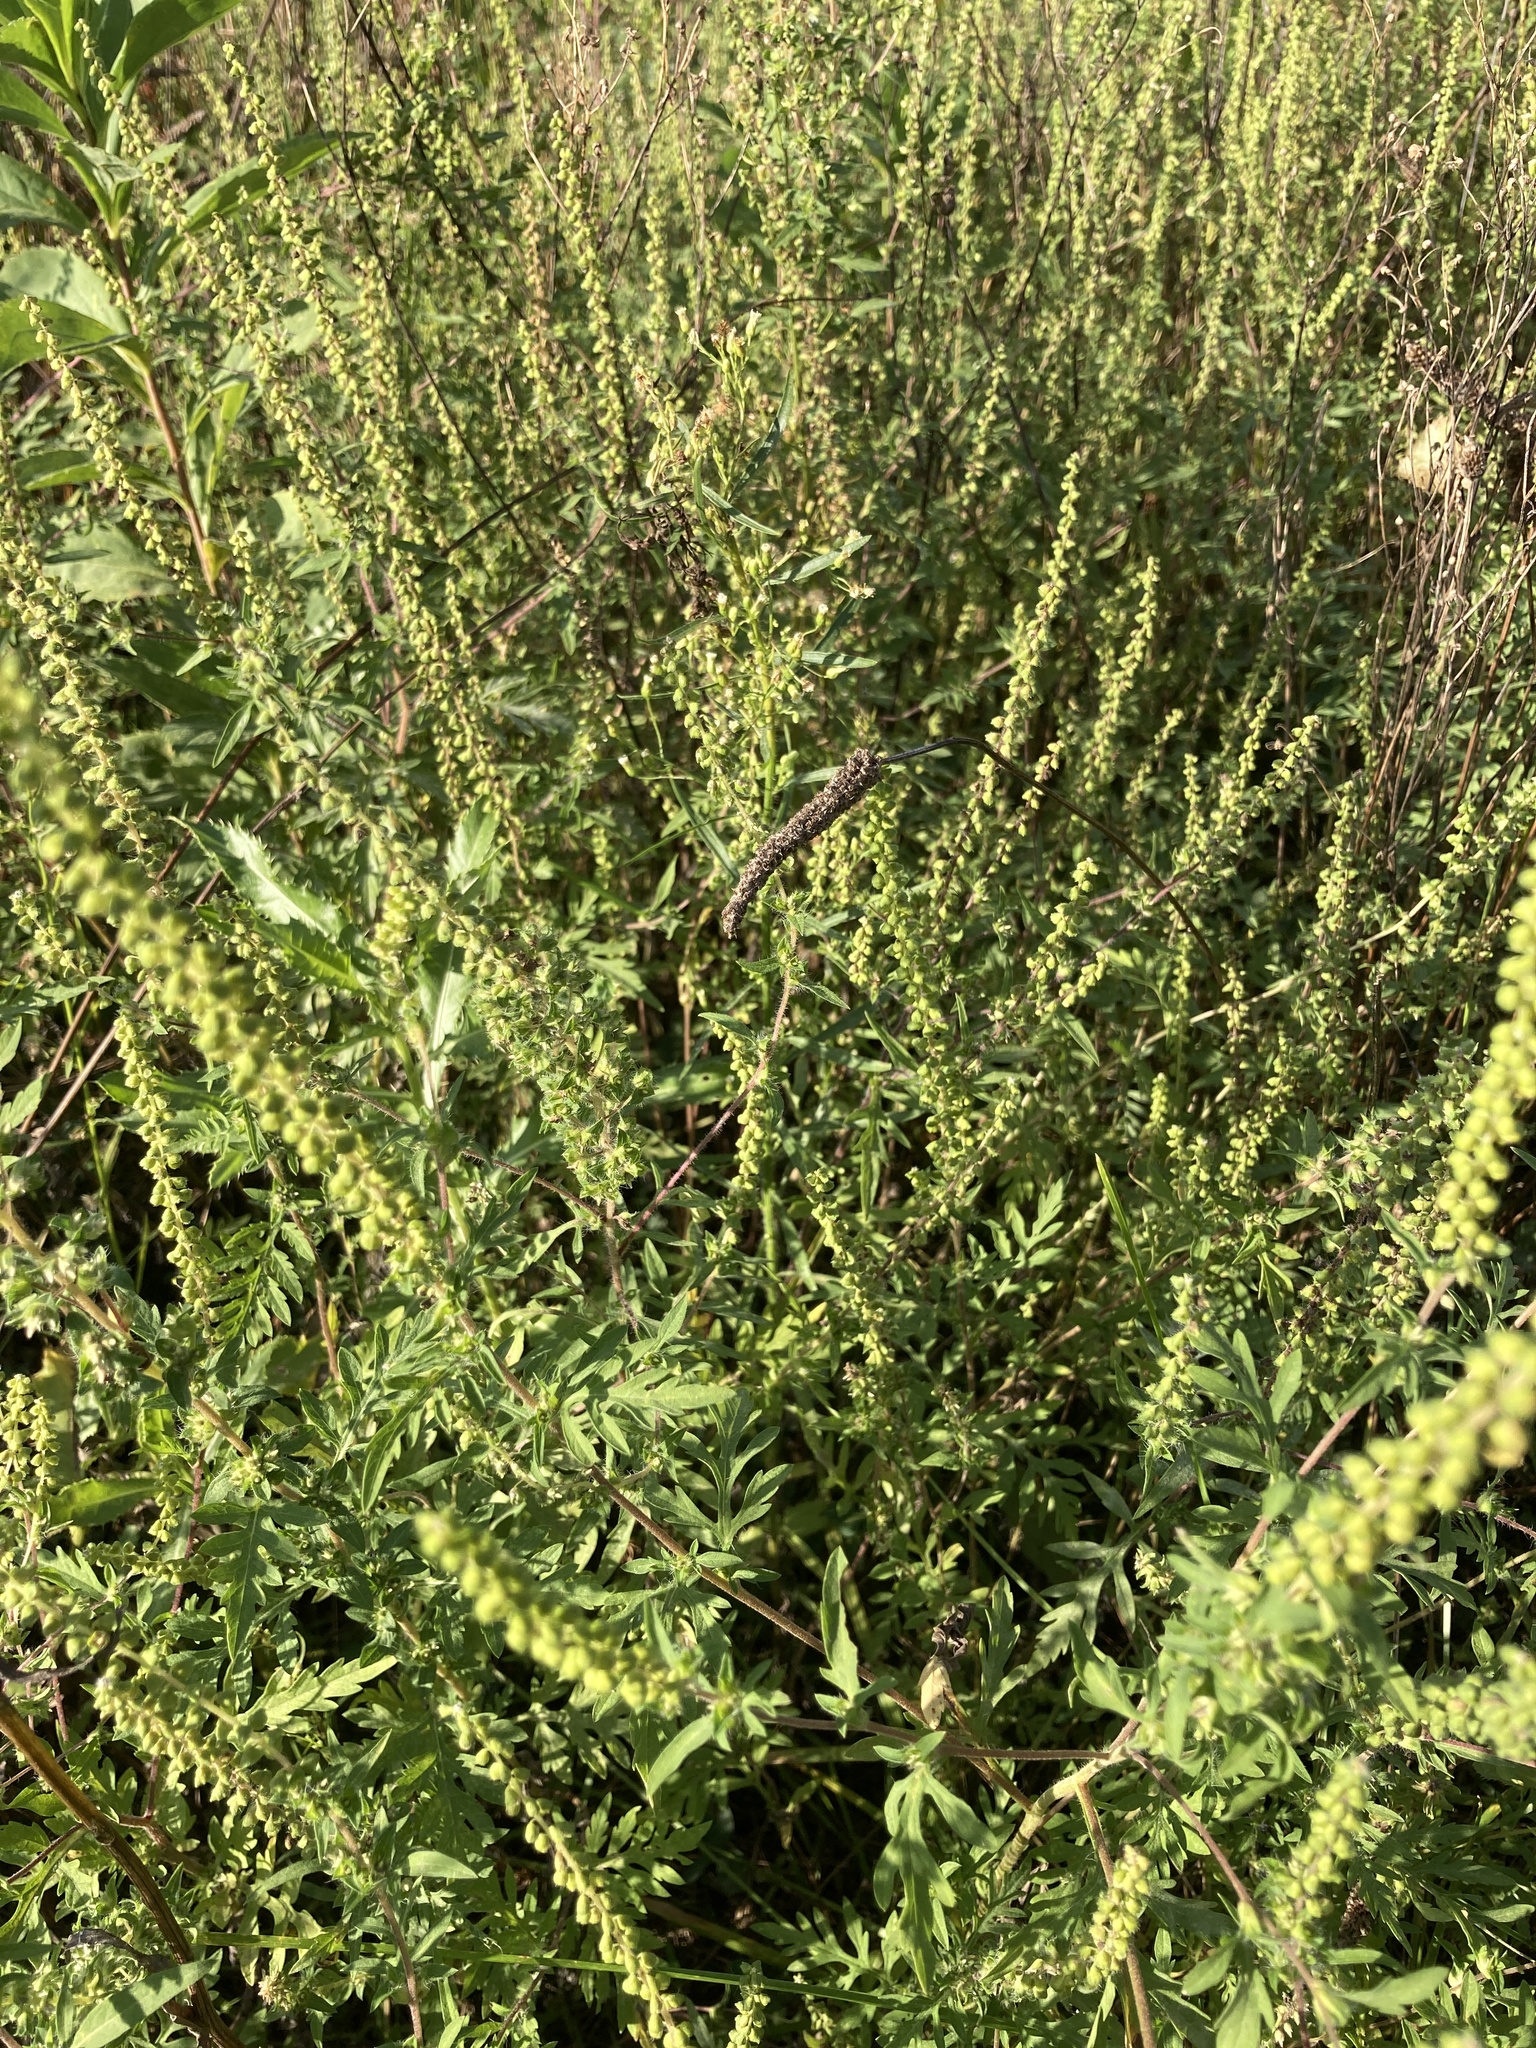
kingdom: Plantae
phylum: Tracheophyta
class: Magnoliopsida
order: Asterales
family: Asteraceae
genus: Ambrosia
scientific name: Ambrosia artemisiifolia
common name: Annual ragweed
